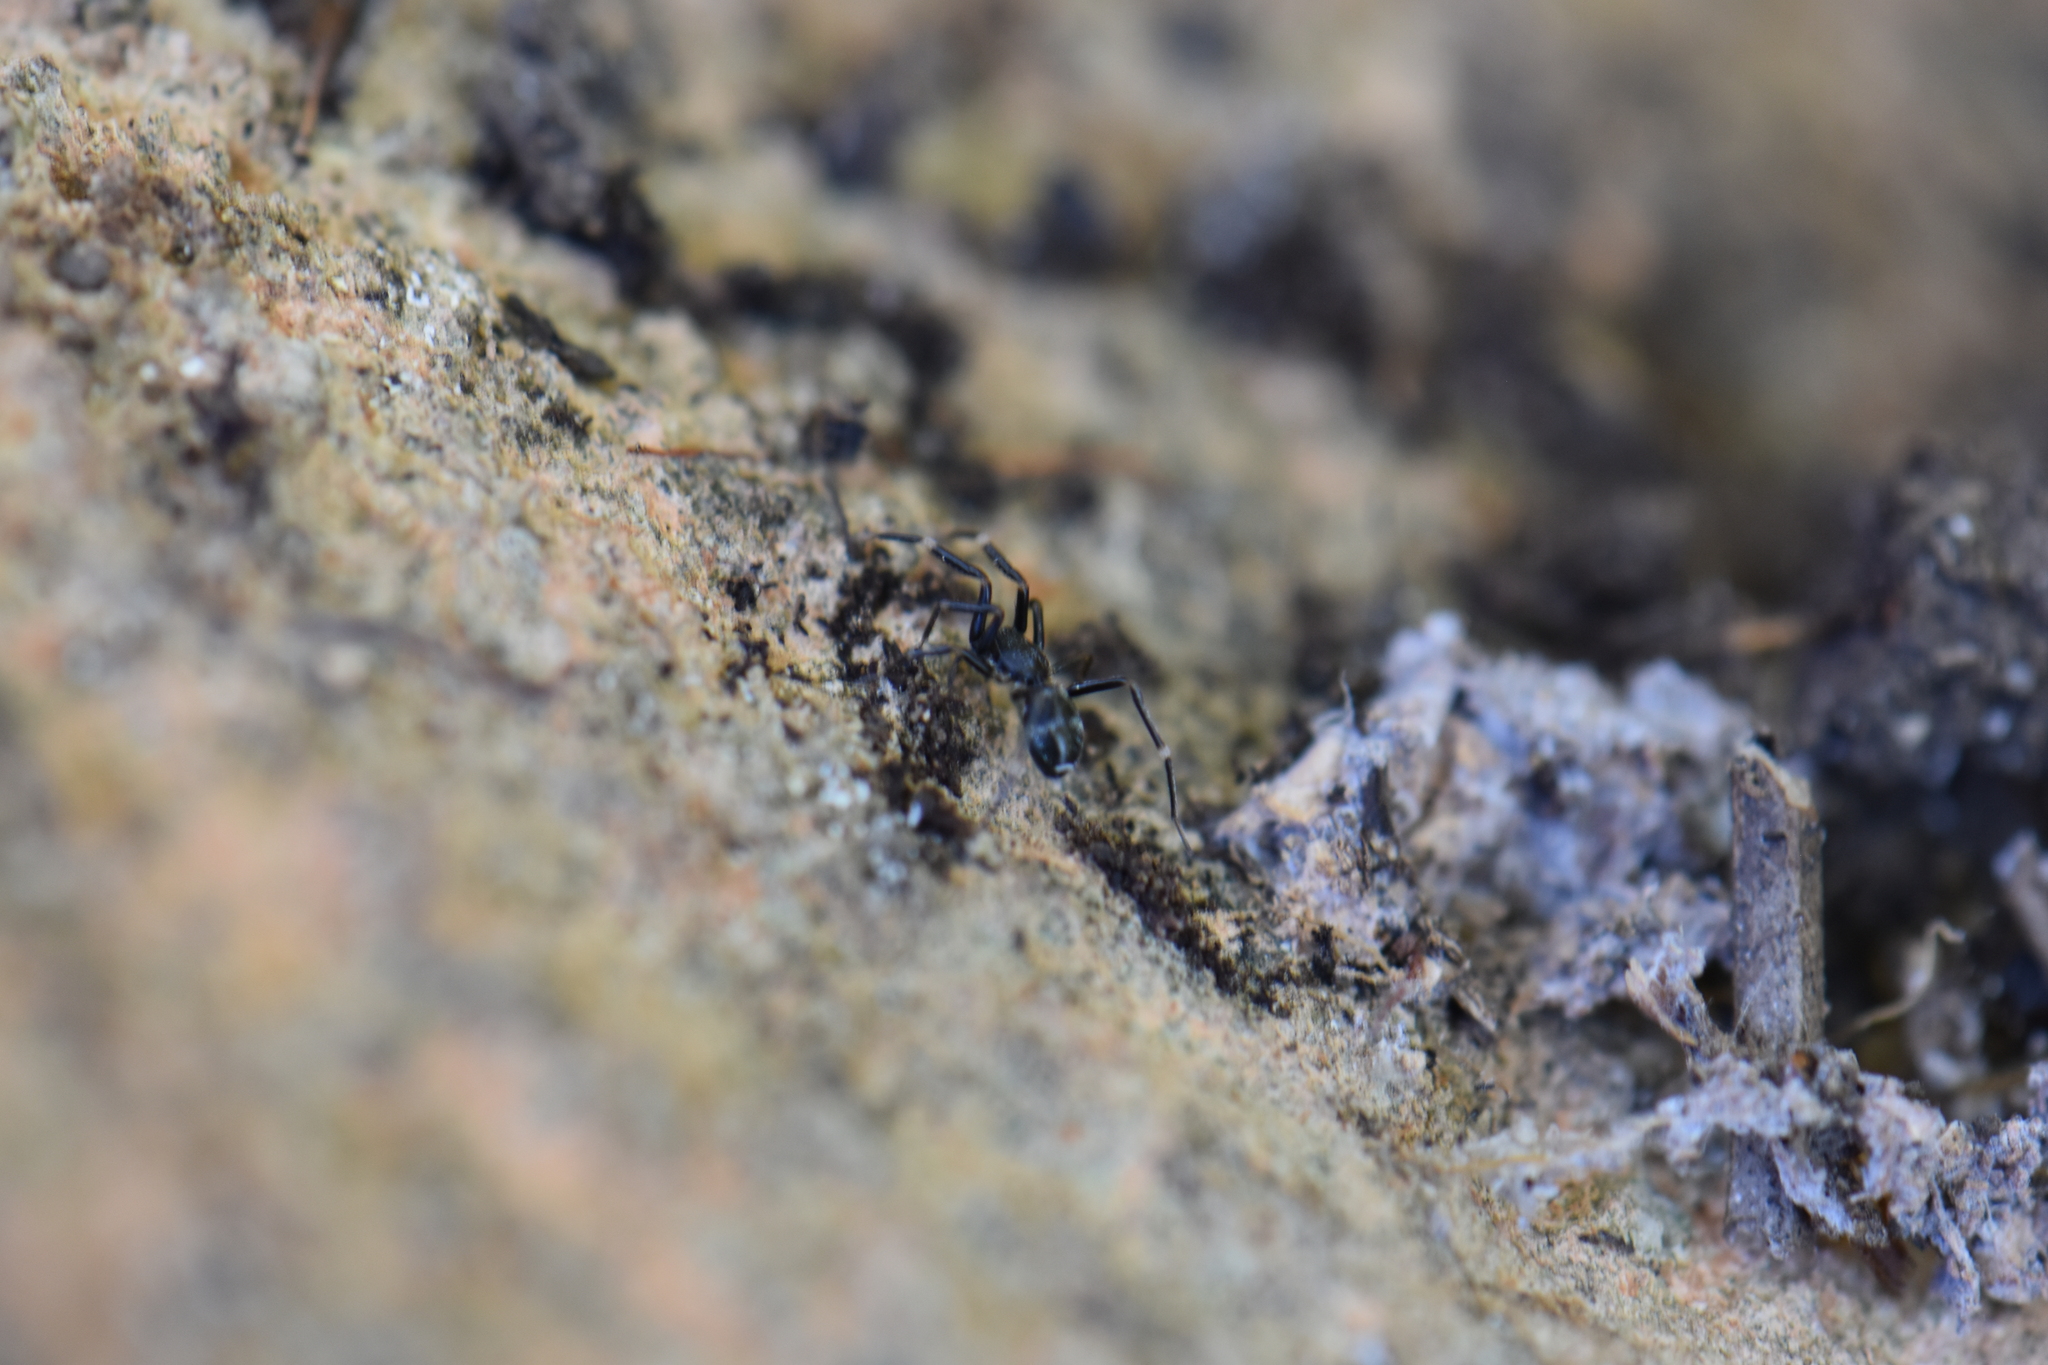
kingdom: Animalia
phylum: Arthropoda
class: Arachnida
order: Araneae
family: Phrurolithidae
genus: Liophrurillus
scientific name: Liophrurillus flavitarsis
